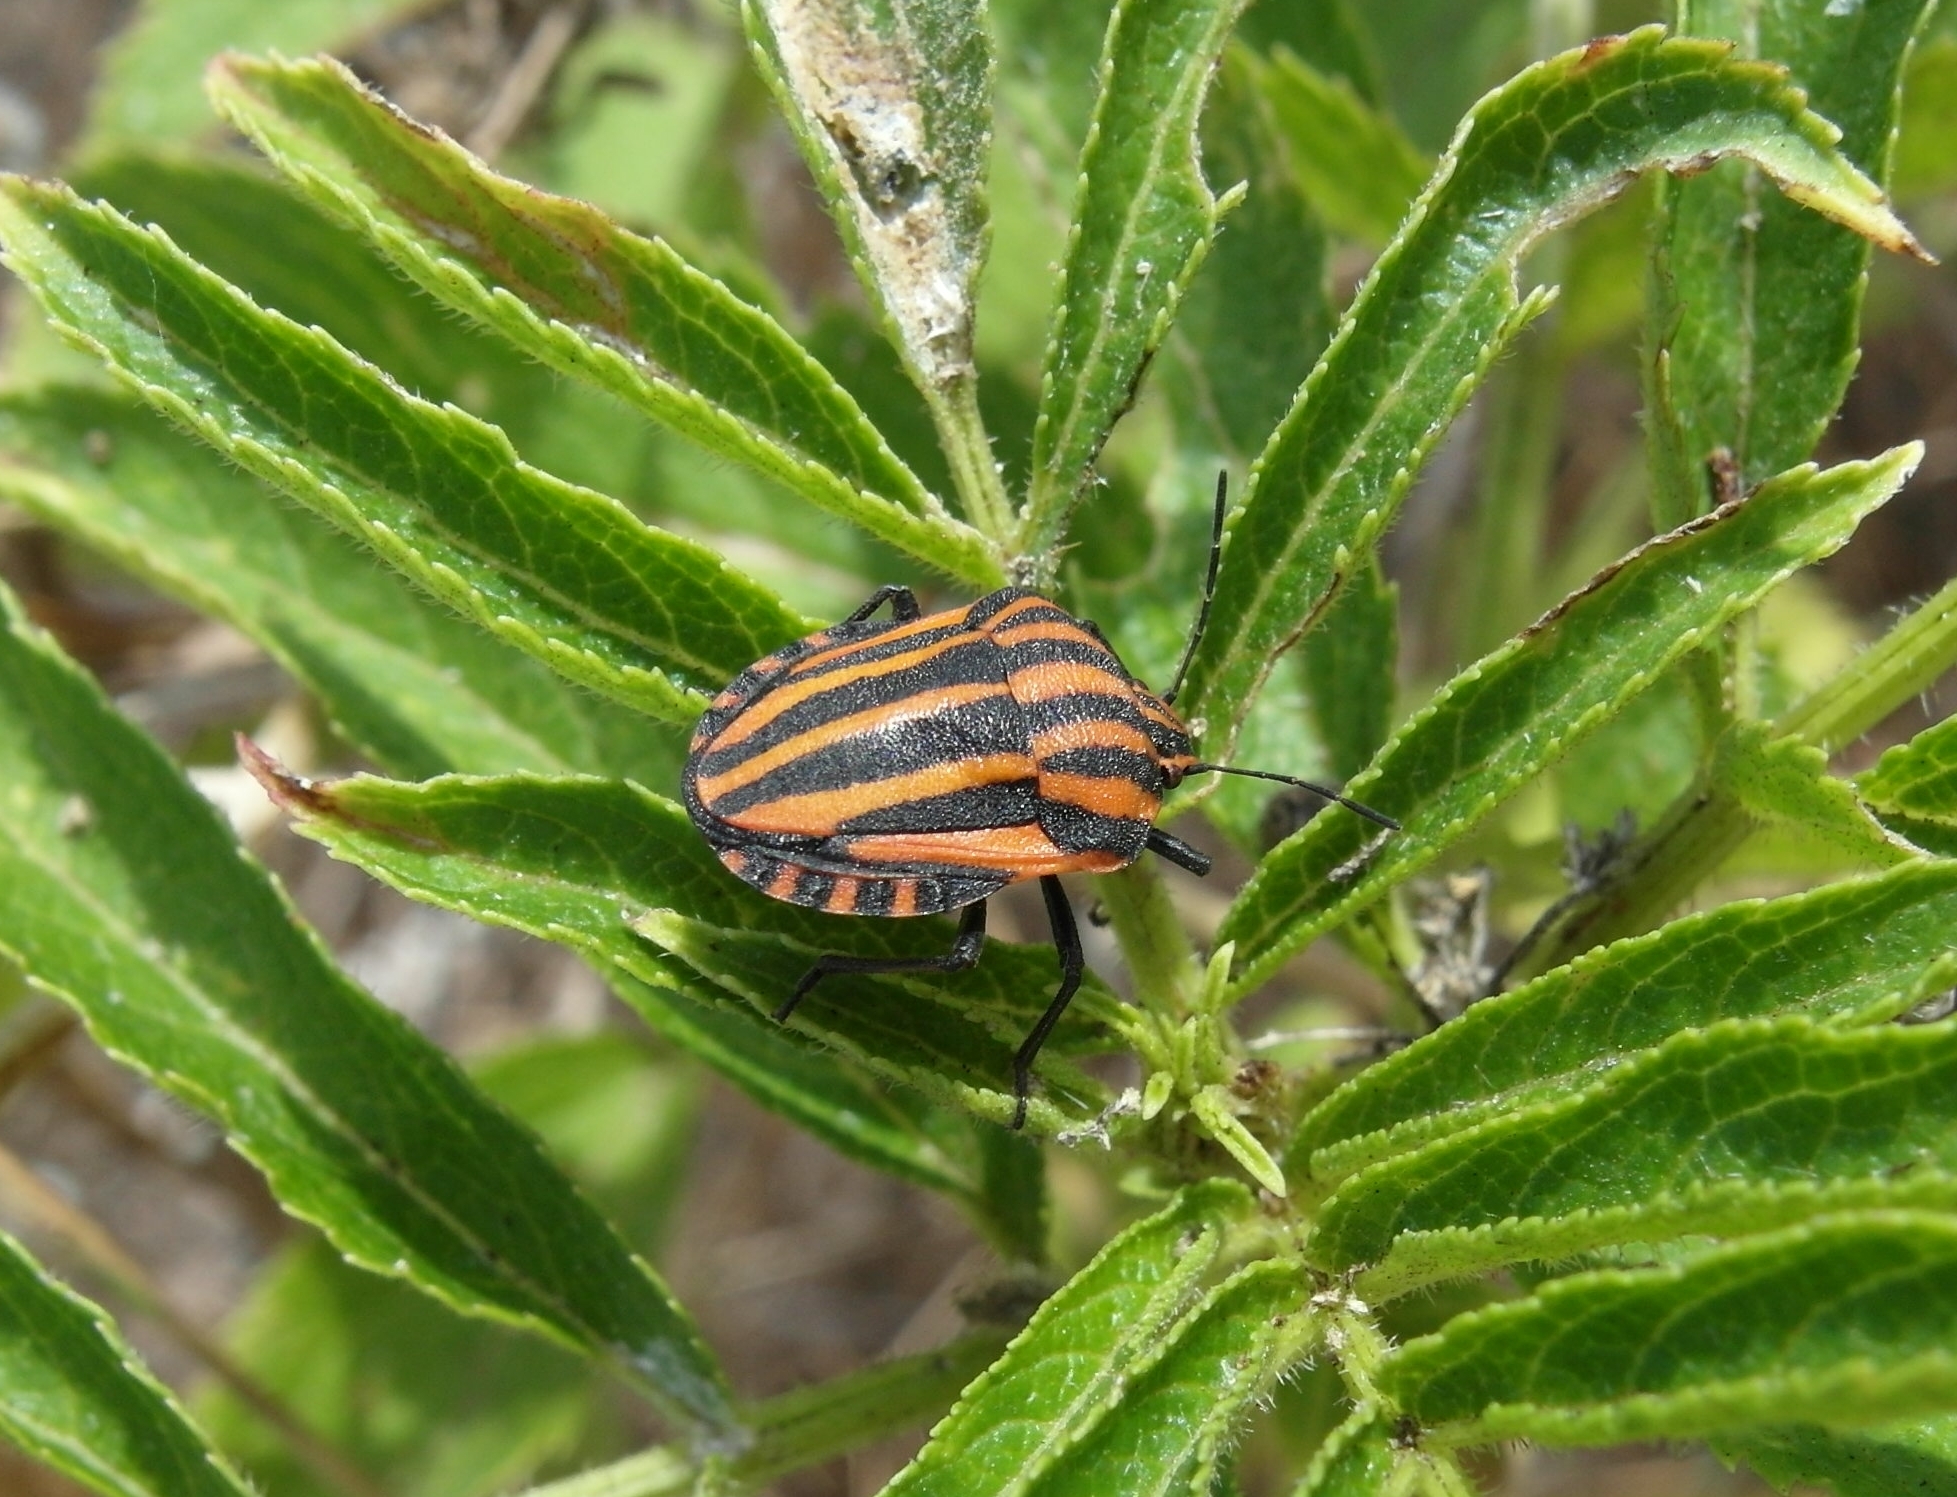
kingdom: Animalia
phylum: Arthropoda
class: Insecta
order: Hemiptera
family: Pentatomidae
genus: Graphosoma
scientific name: Graphosoma italicum
